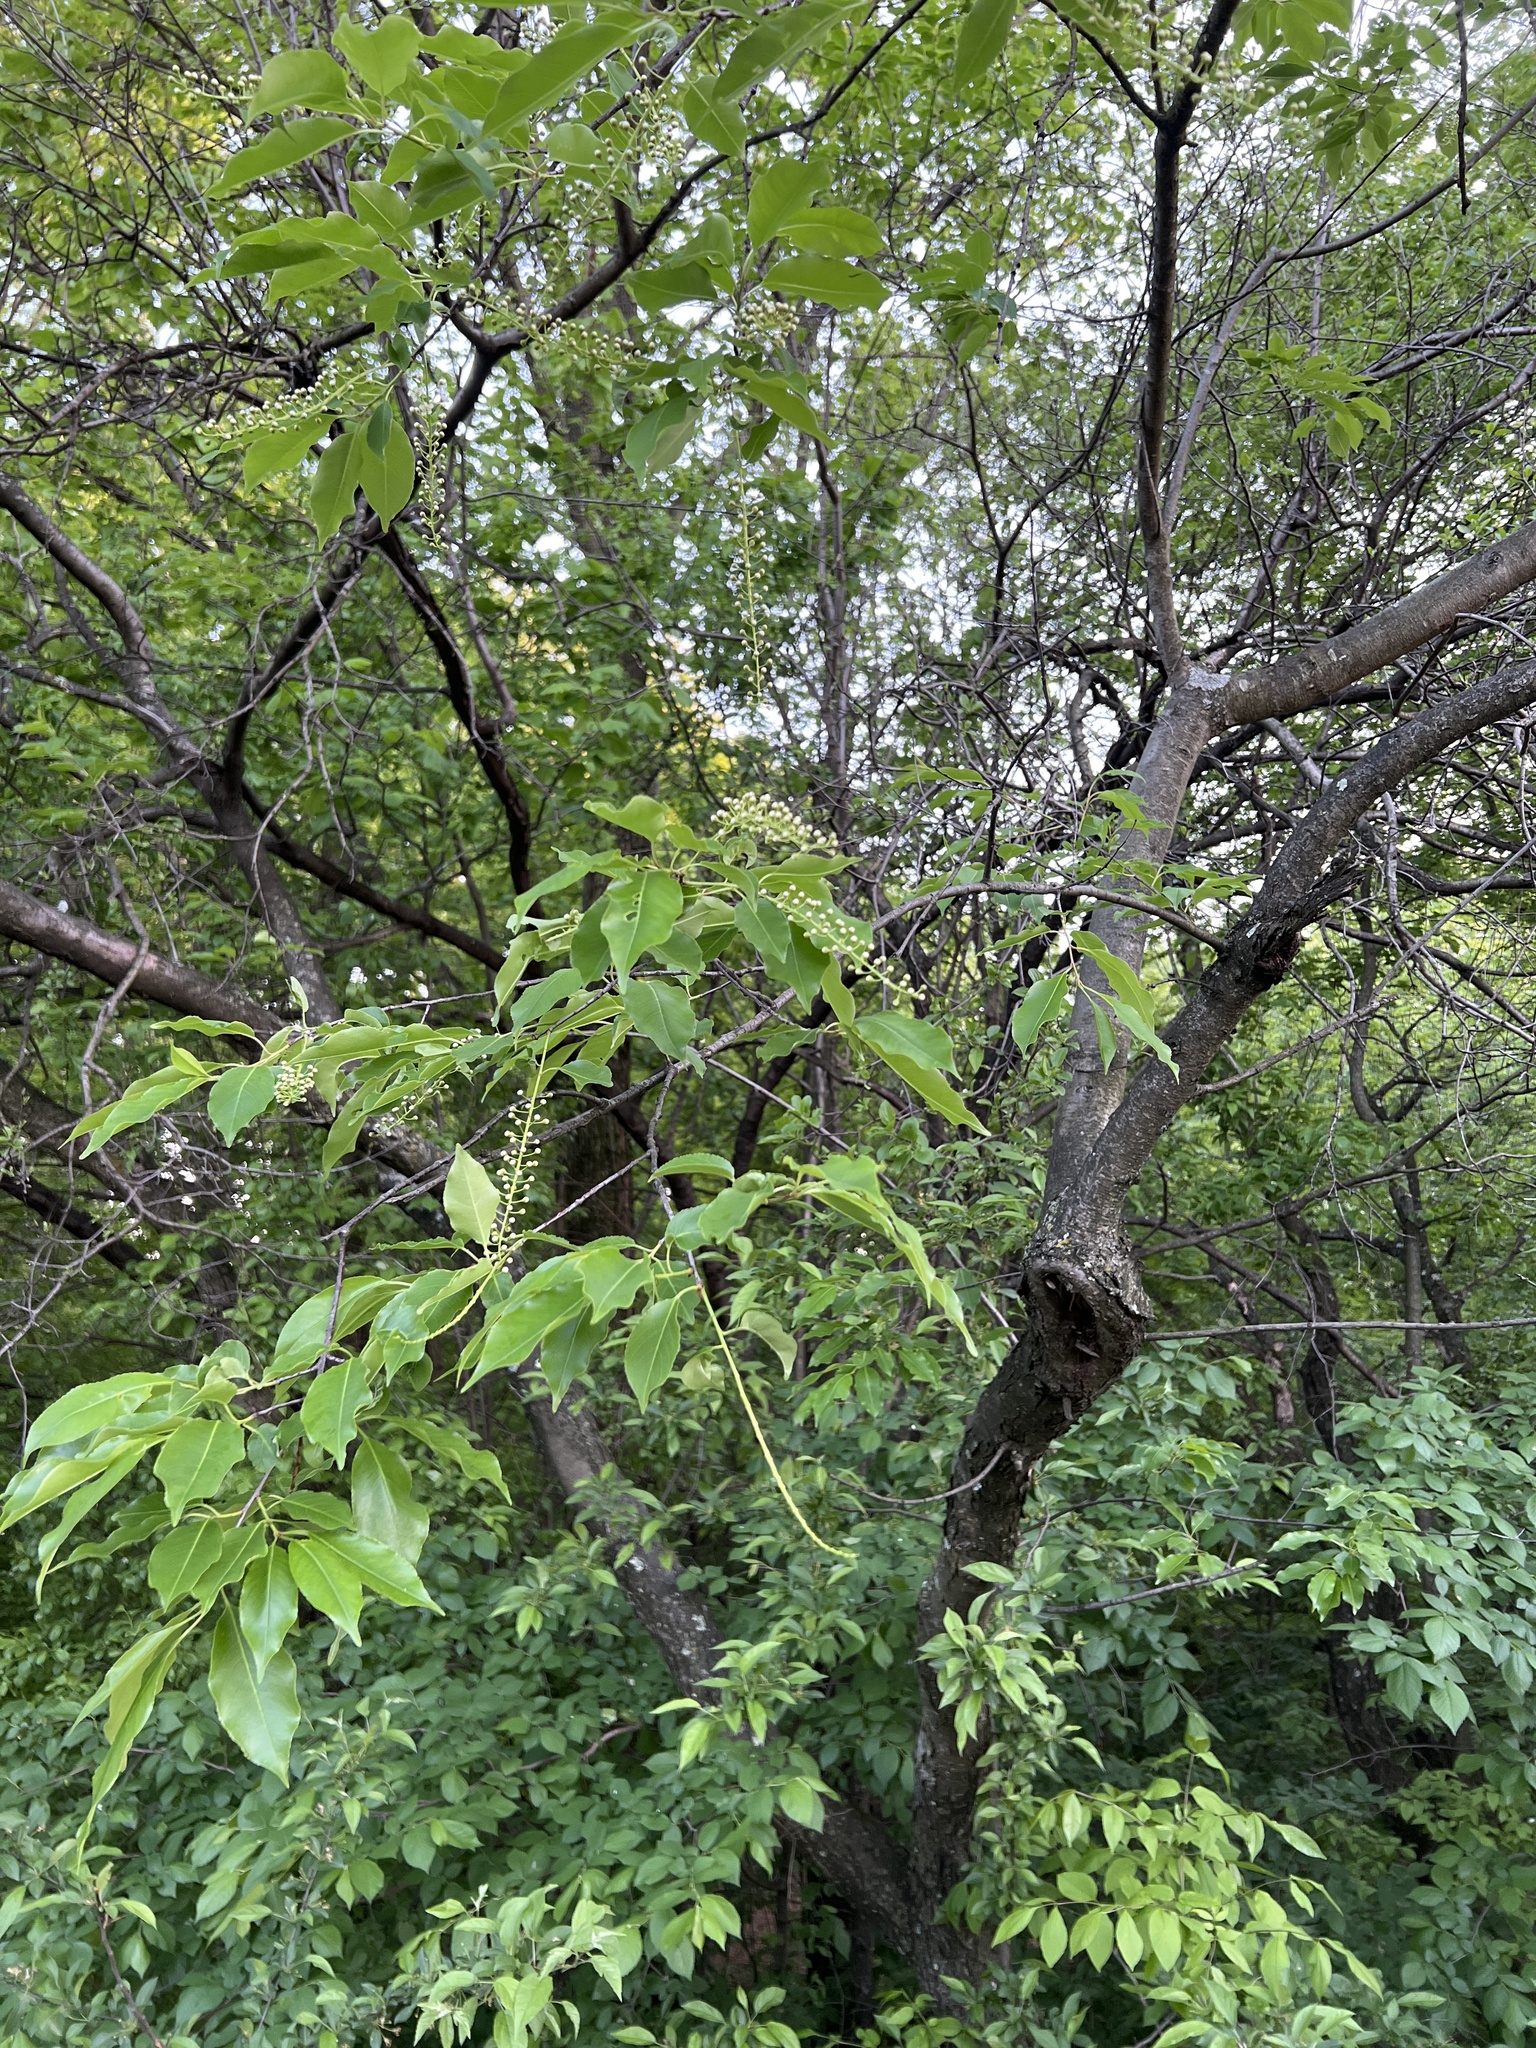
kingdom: Plantae
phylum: Tracheophyta
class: Magnoliopsida
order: Rosales
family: Rosaceae
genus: Prunus
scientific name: Prunus serotina
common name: Black cherry
